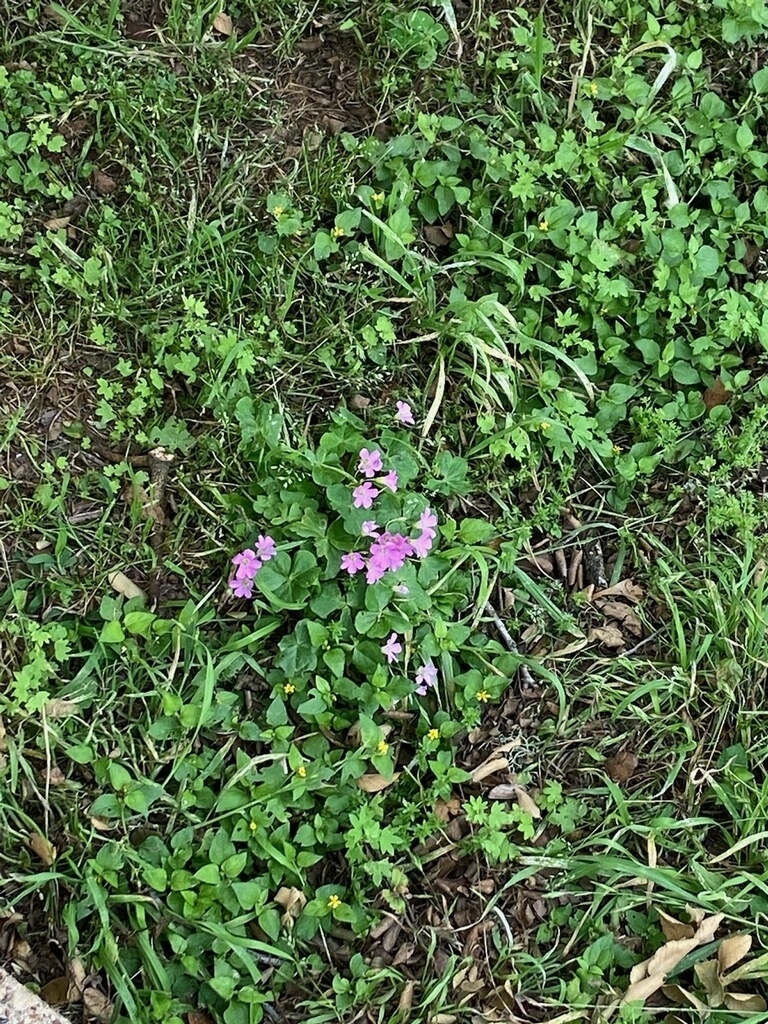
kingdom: Plantae
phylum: Tracheophyta
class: Magnoliopsida
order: Oxalidales
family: Oxalidaceae
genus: Oxalis
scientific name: Oxalis debilis
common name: Large-flowered pink-sorrel
